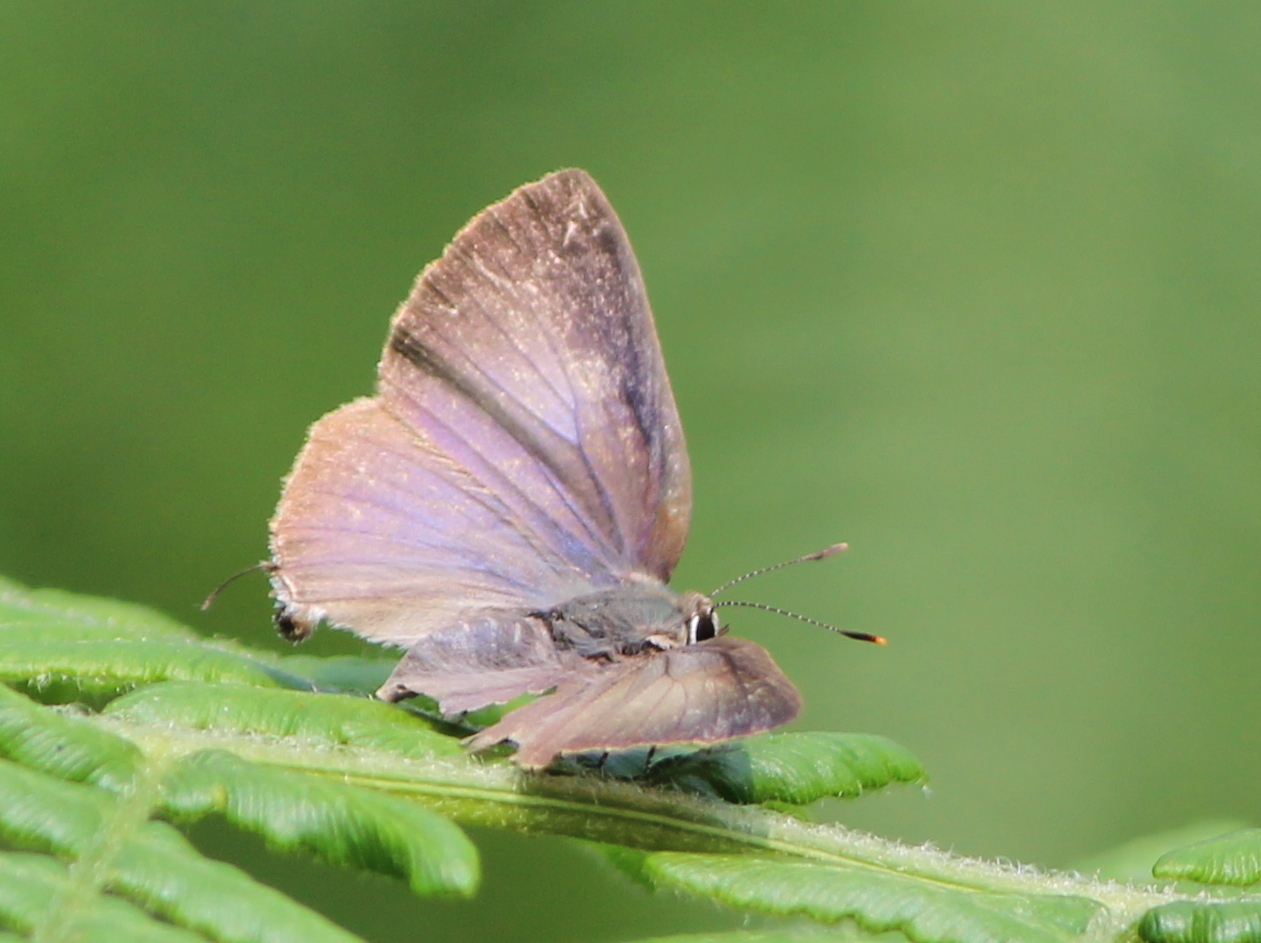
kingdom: Animalia
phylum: Arthropoda
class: Insecta
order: Lepidoptera
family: Lycaenidae
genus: Rapala
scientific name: Rapala manea
